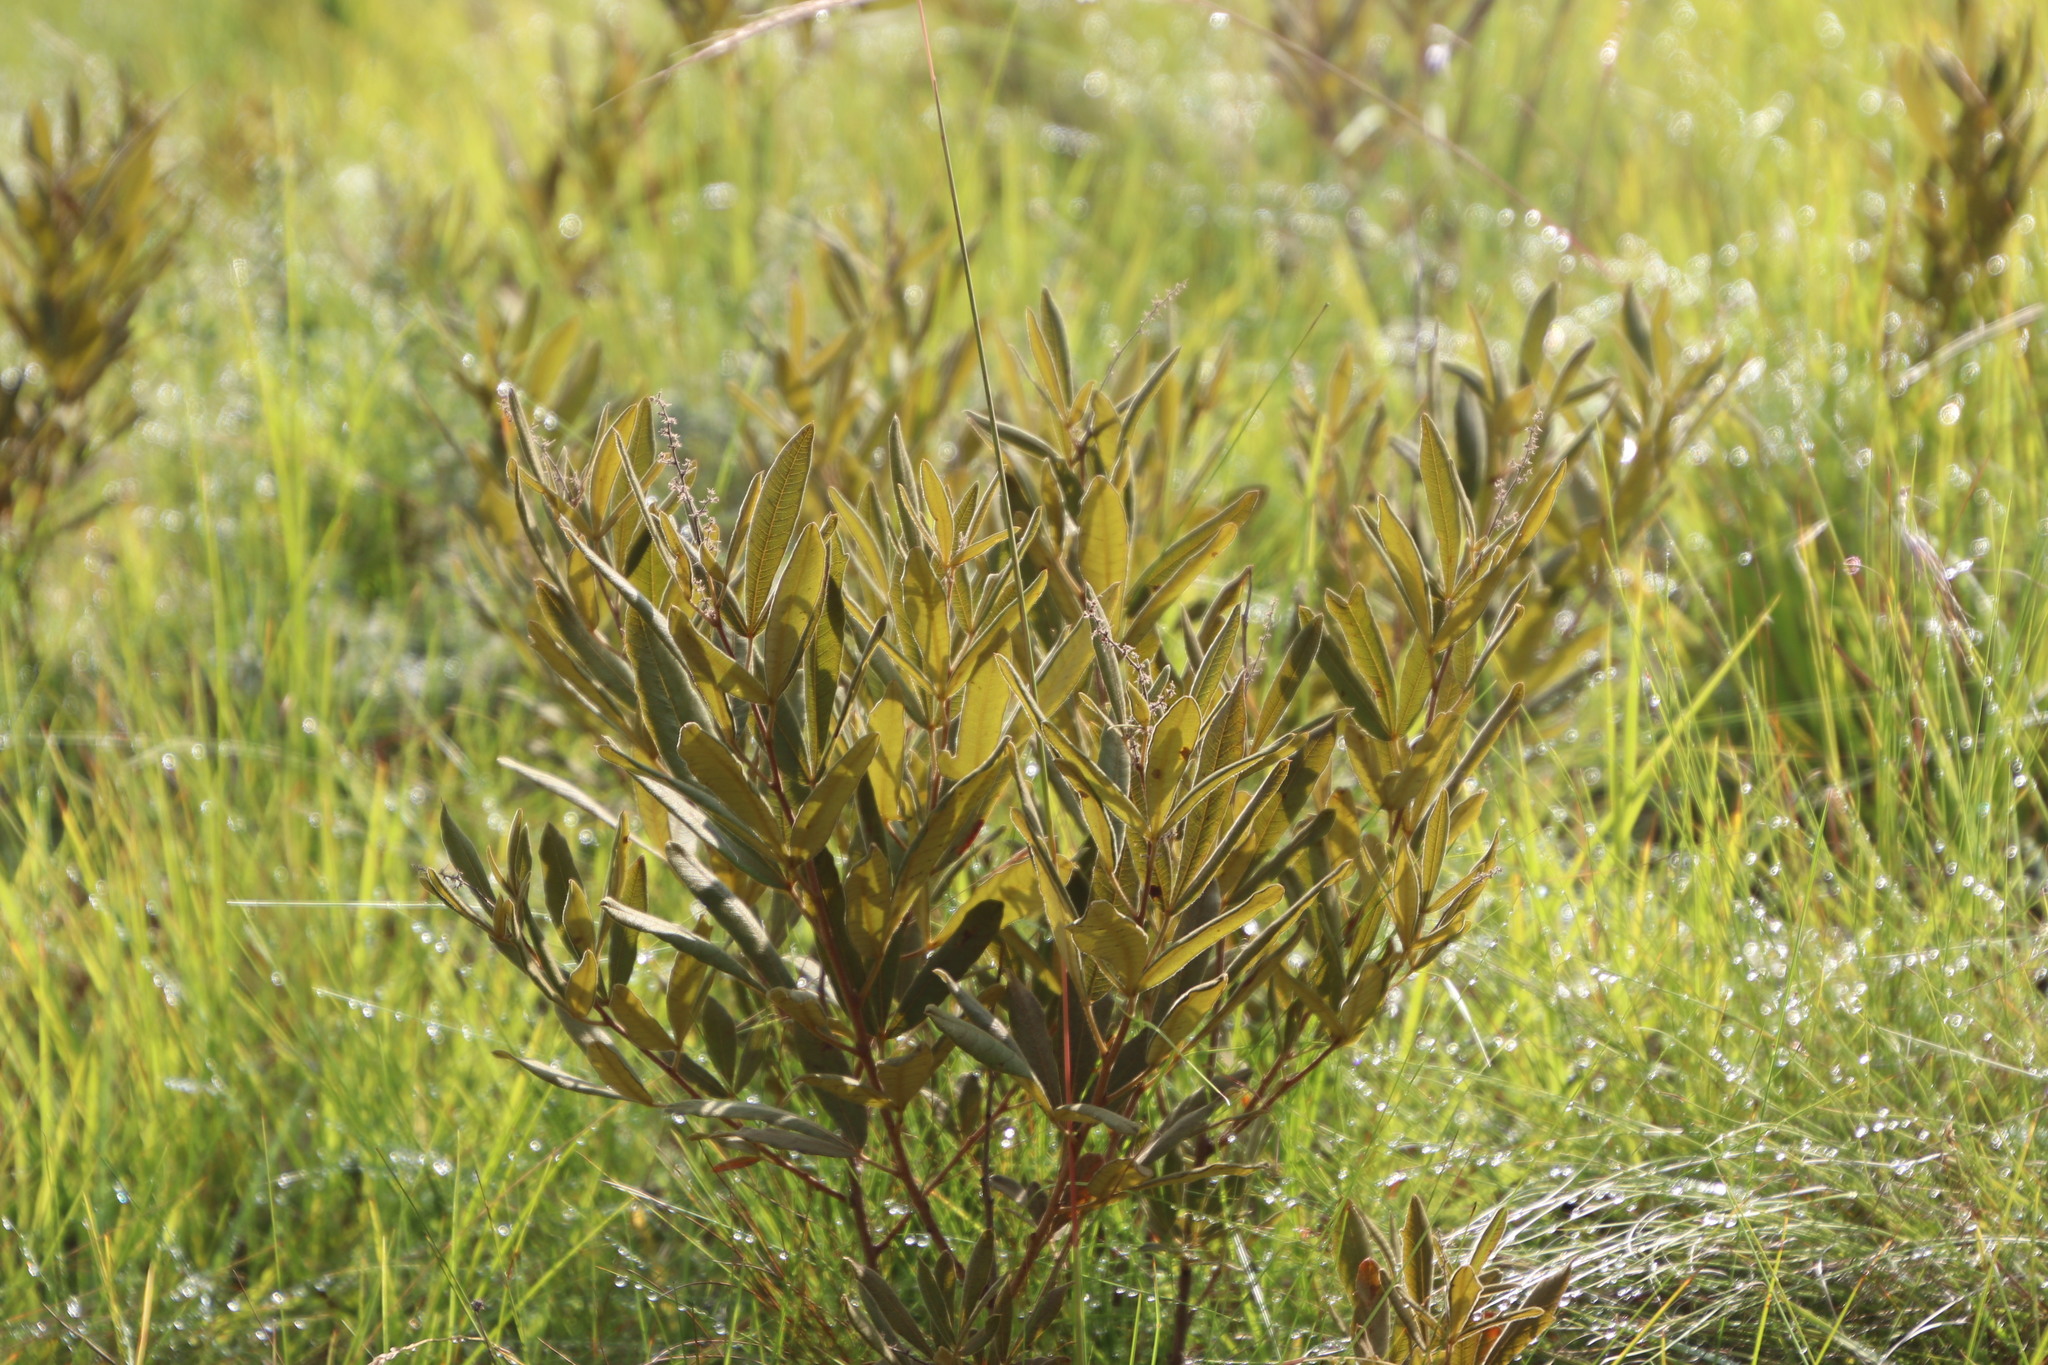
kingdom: Plantae
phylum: Tracheophyta
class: Magnoliopsida
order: Sapindales
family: Anacardiaceae
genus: Searsia
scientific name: Searsia discolor
